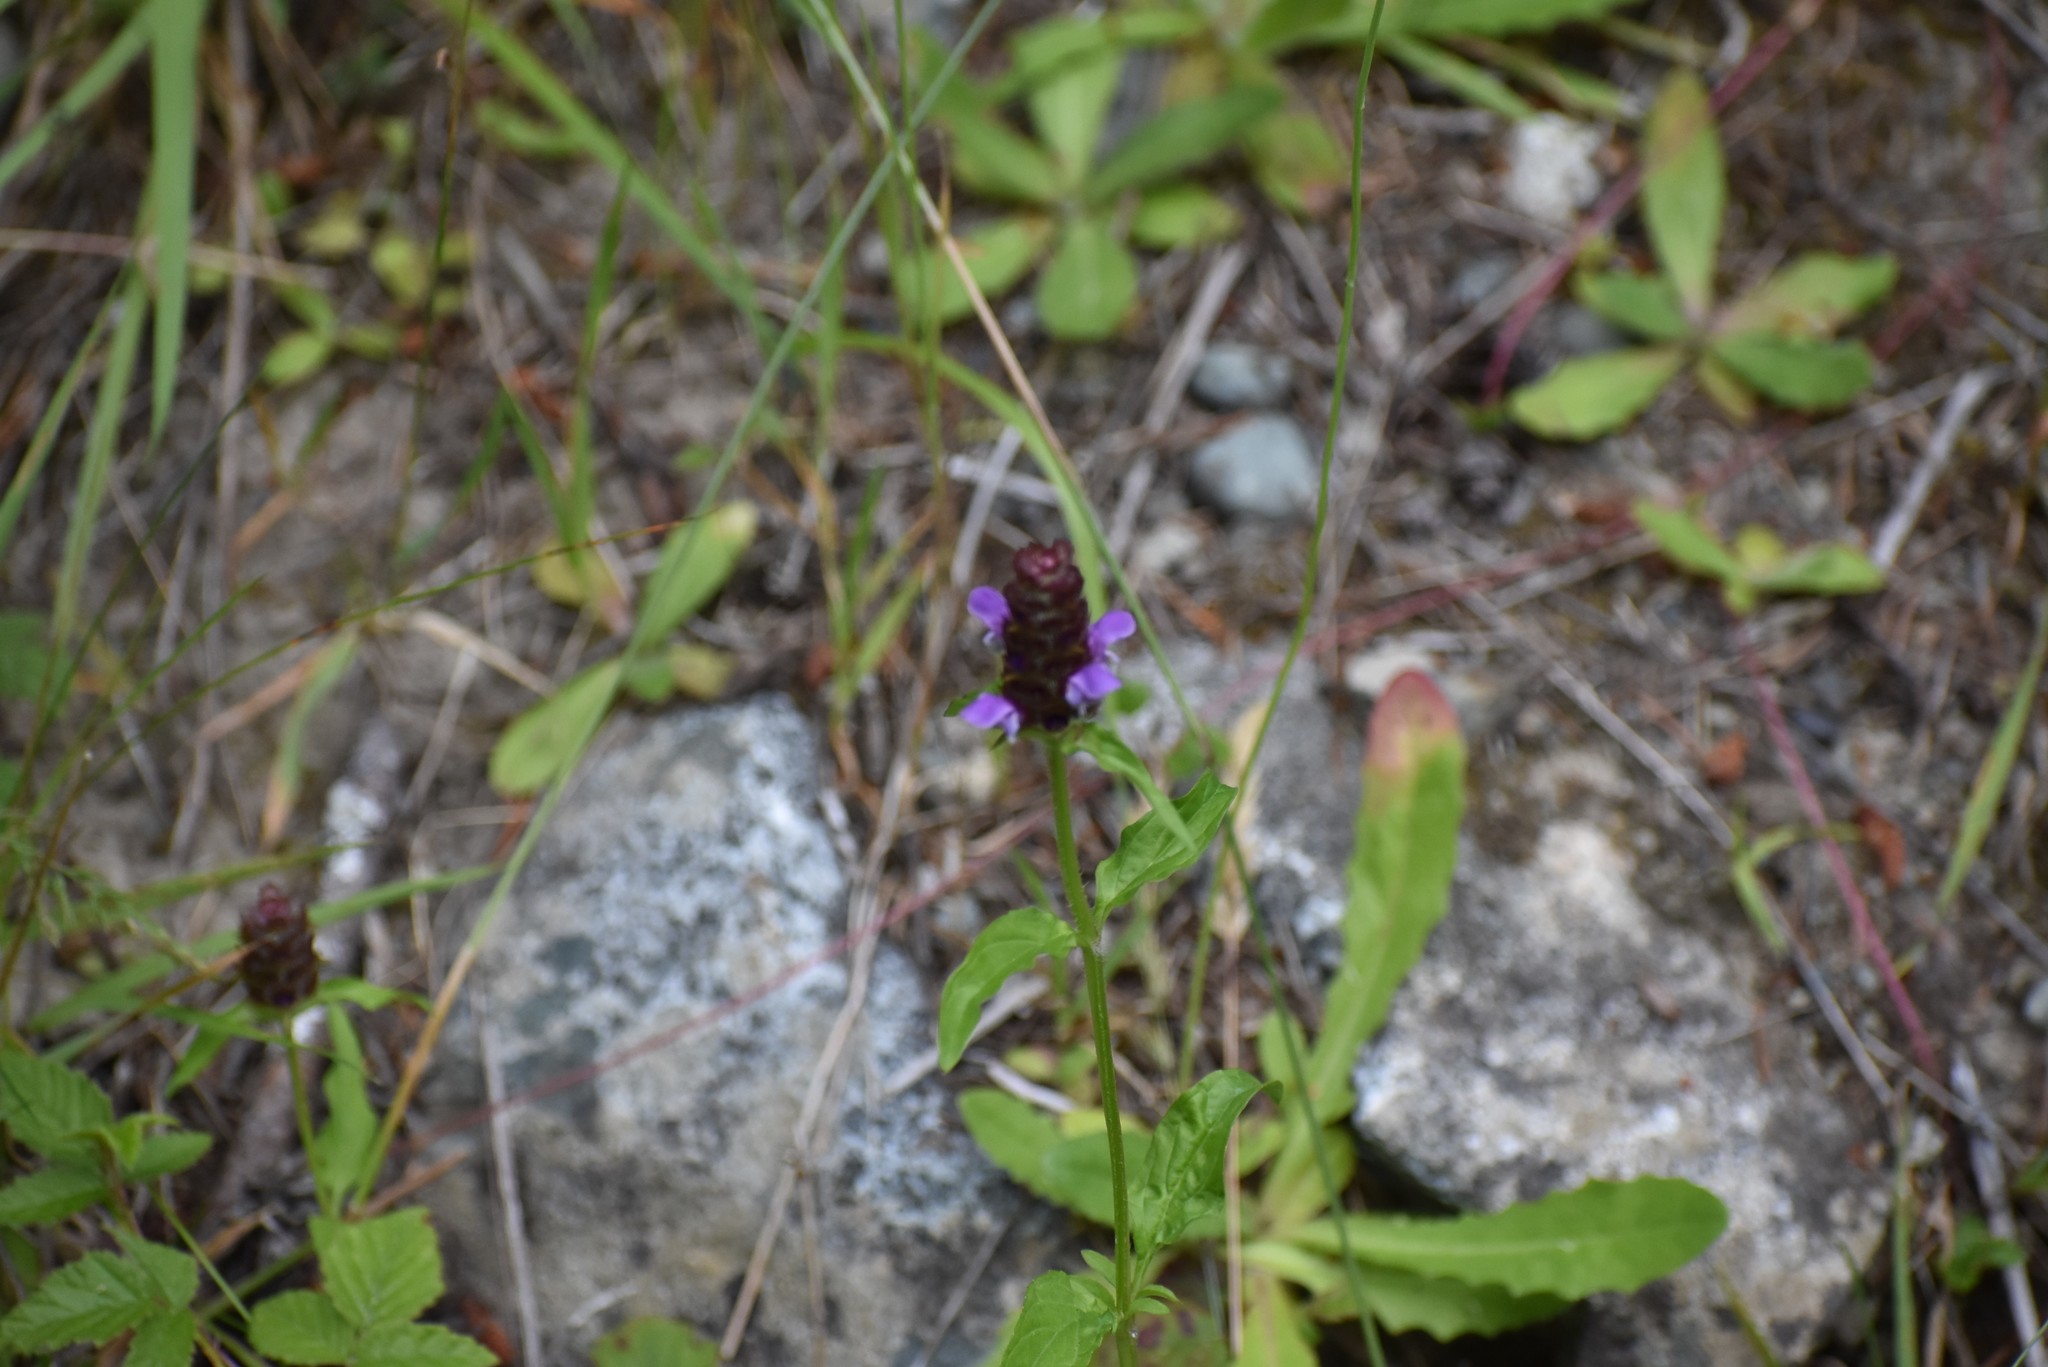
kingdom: Plantae
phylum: Tracheophyta
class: Magnoliopsida
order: Lamiales
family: Lamiaceae
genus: Prunella
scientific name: Prunella vulgaris
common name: Heal-all
